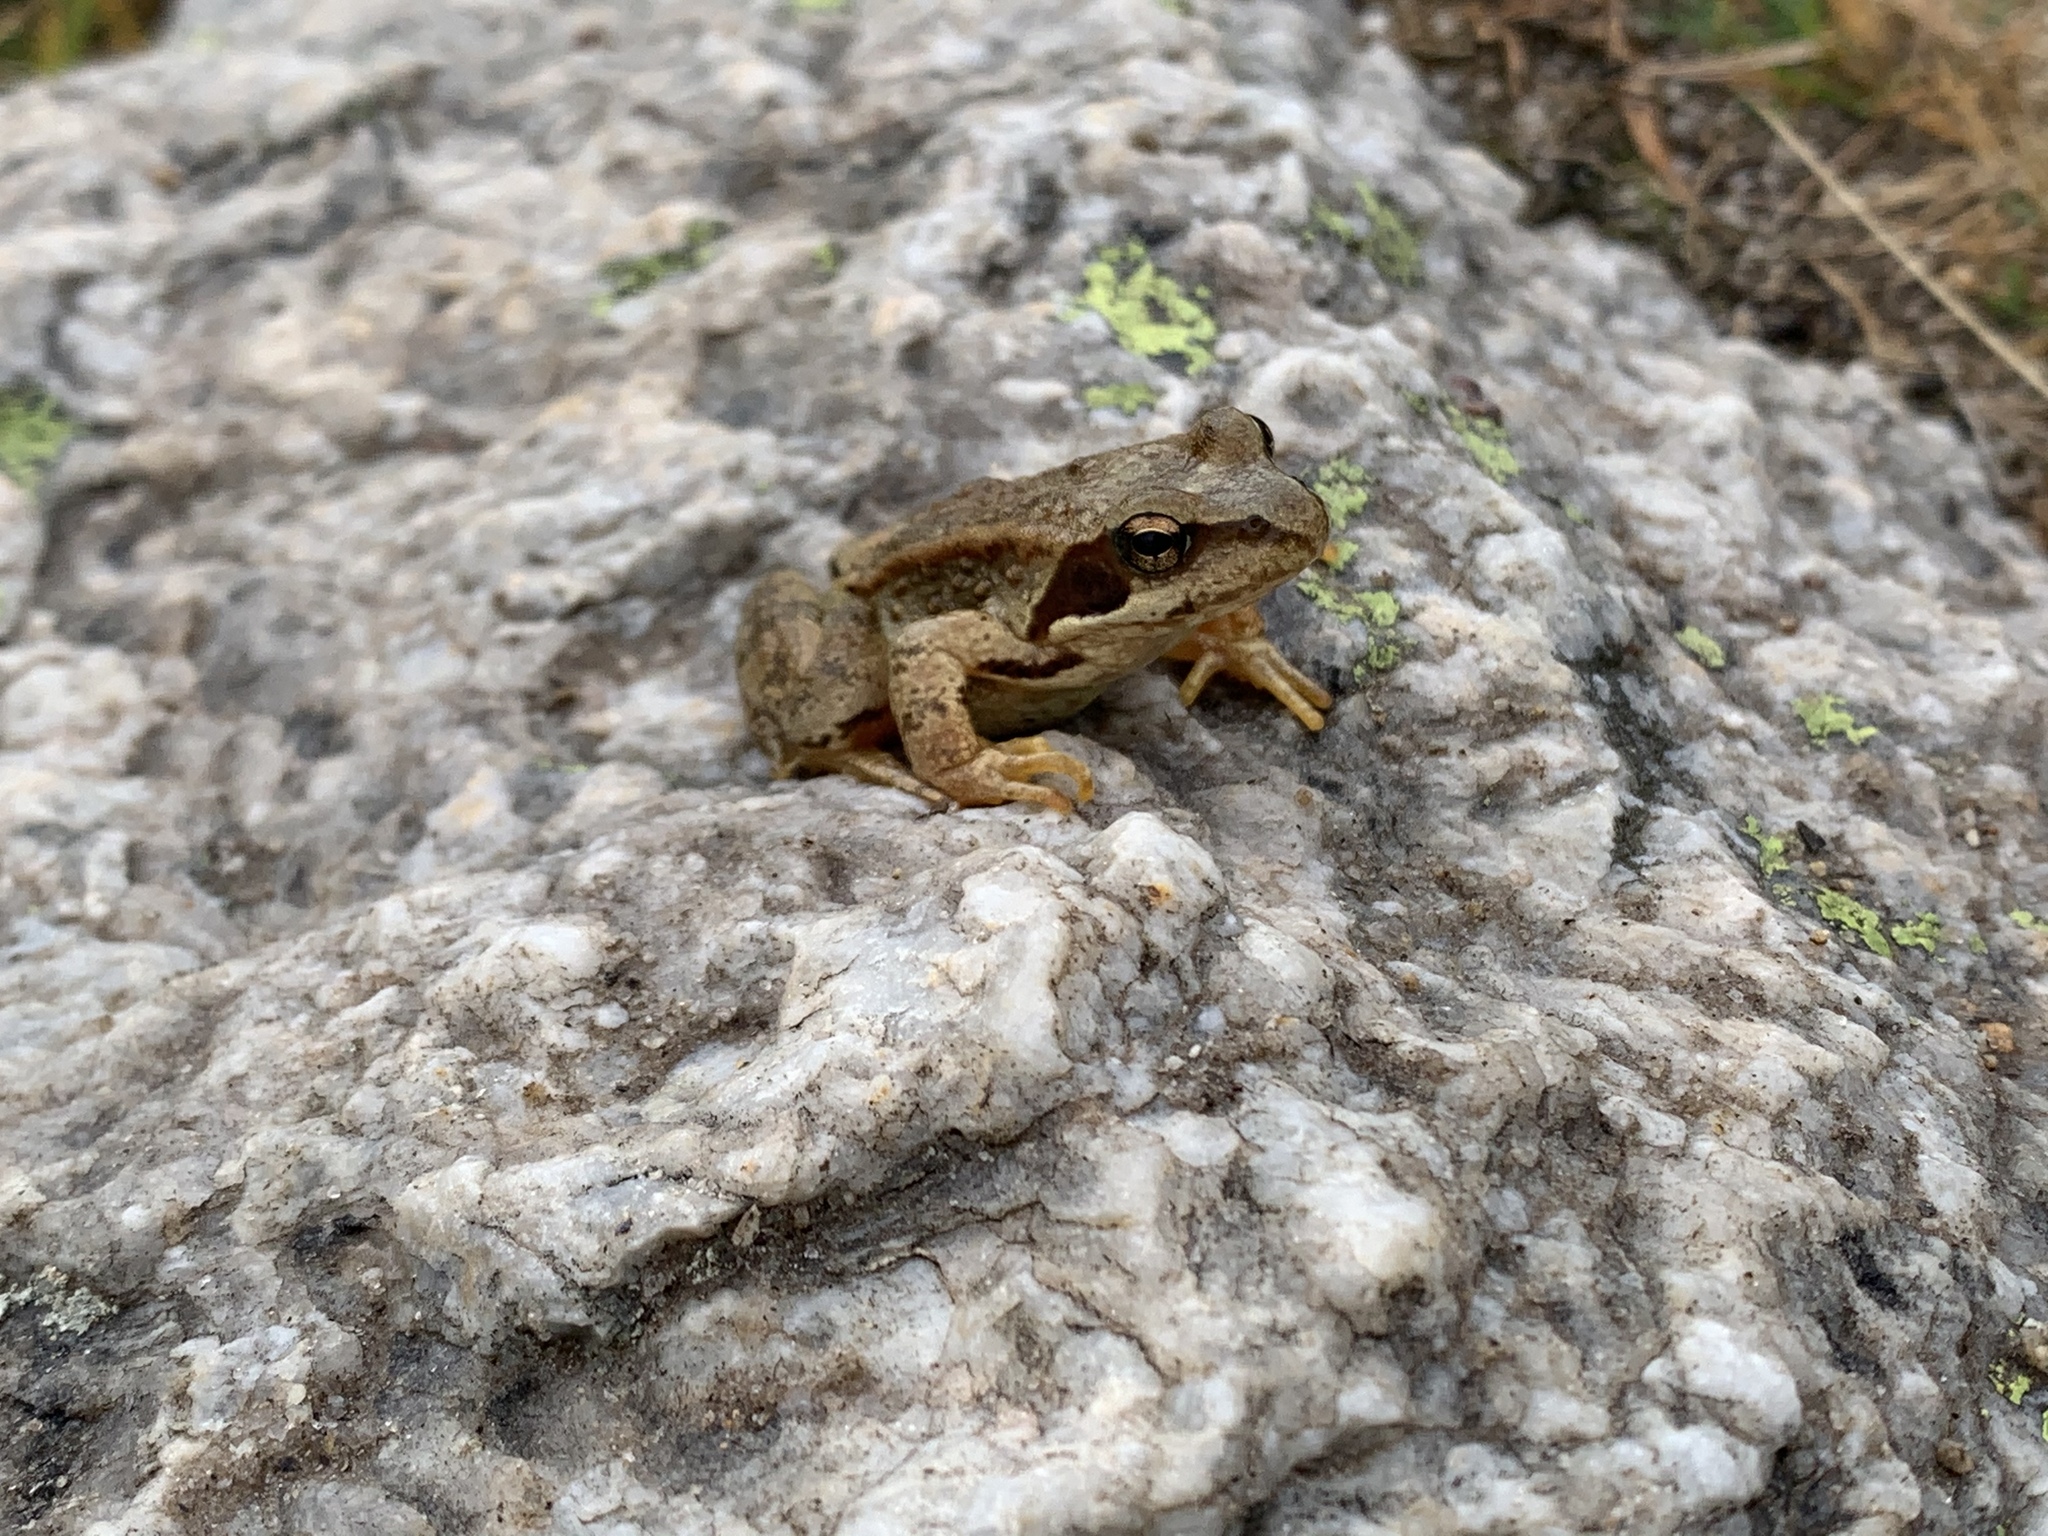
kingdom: Animalia
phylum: Chordata
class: Amphibia
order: Anura
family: Ranidae
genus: Rana
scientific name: Rana temporaria
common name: Common frog
